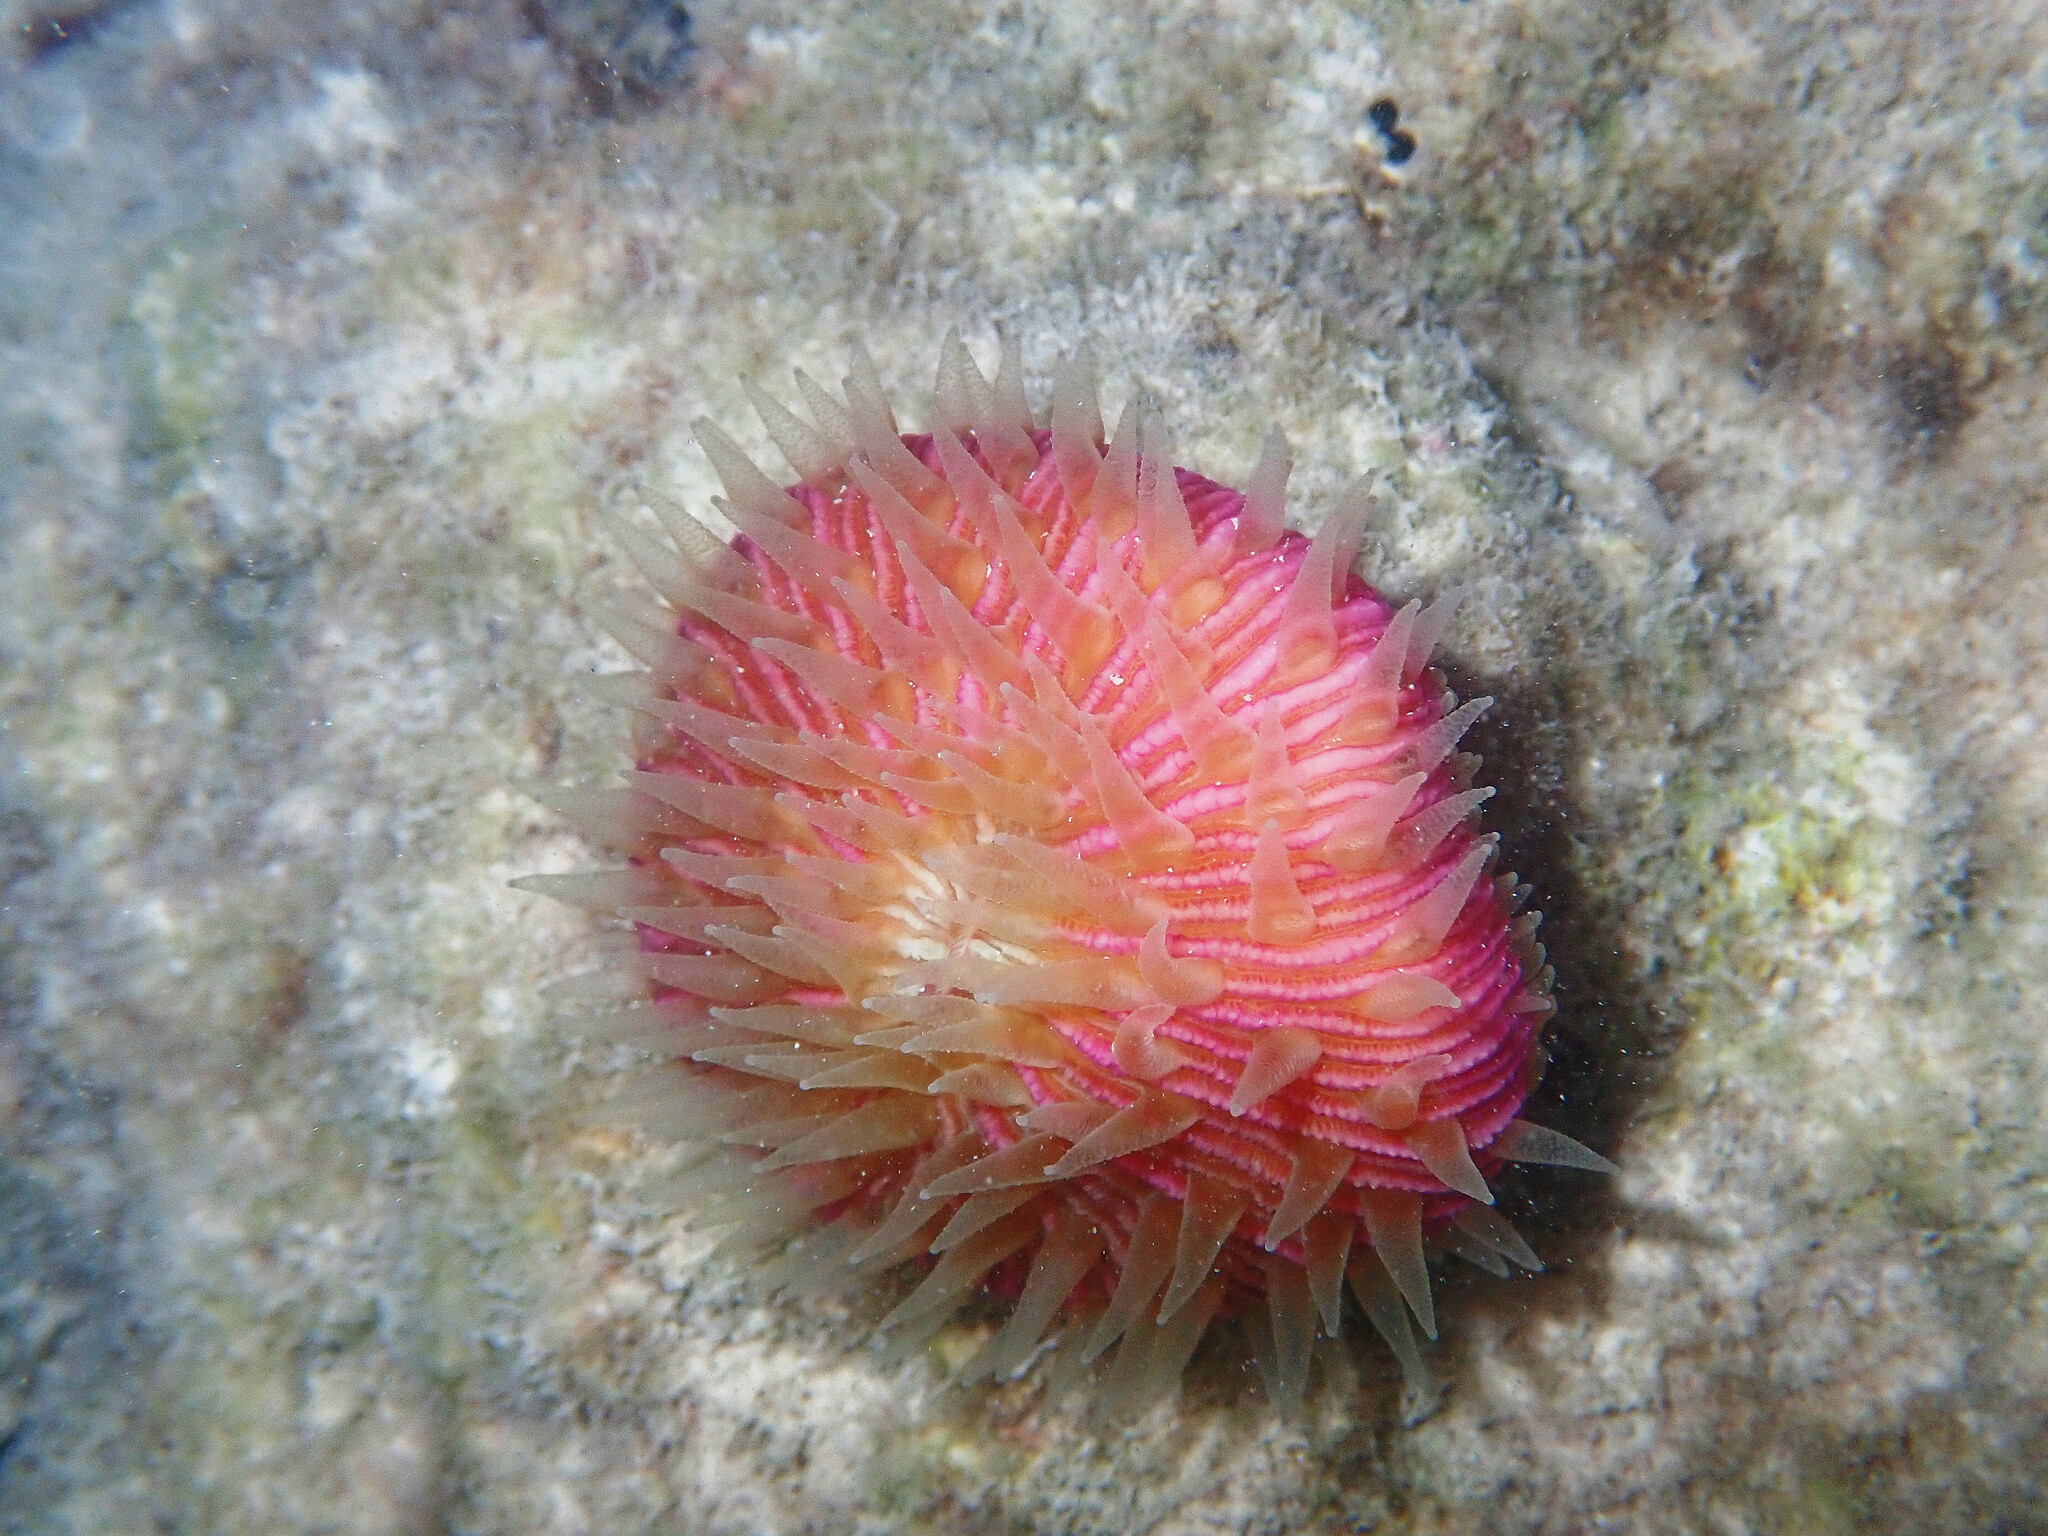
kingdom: Animalia
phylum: Cnidaria
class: Anthozoa
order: Scleractinia
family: Fungiidae
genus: Fungia
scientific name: Fungia fungites
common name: Mushroom coral
